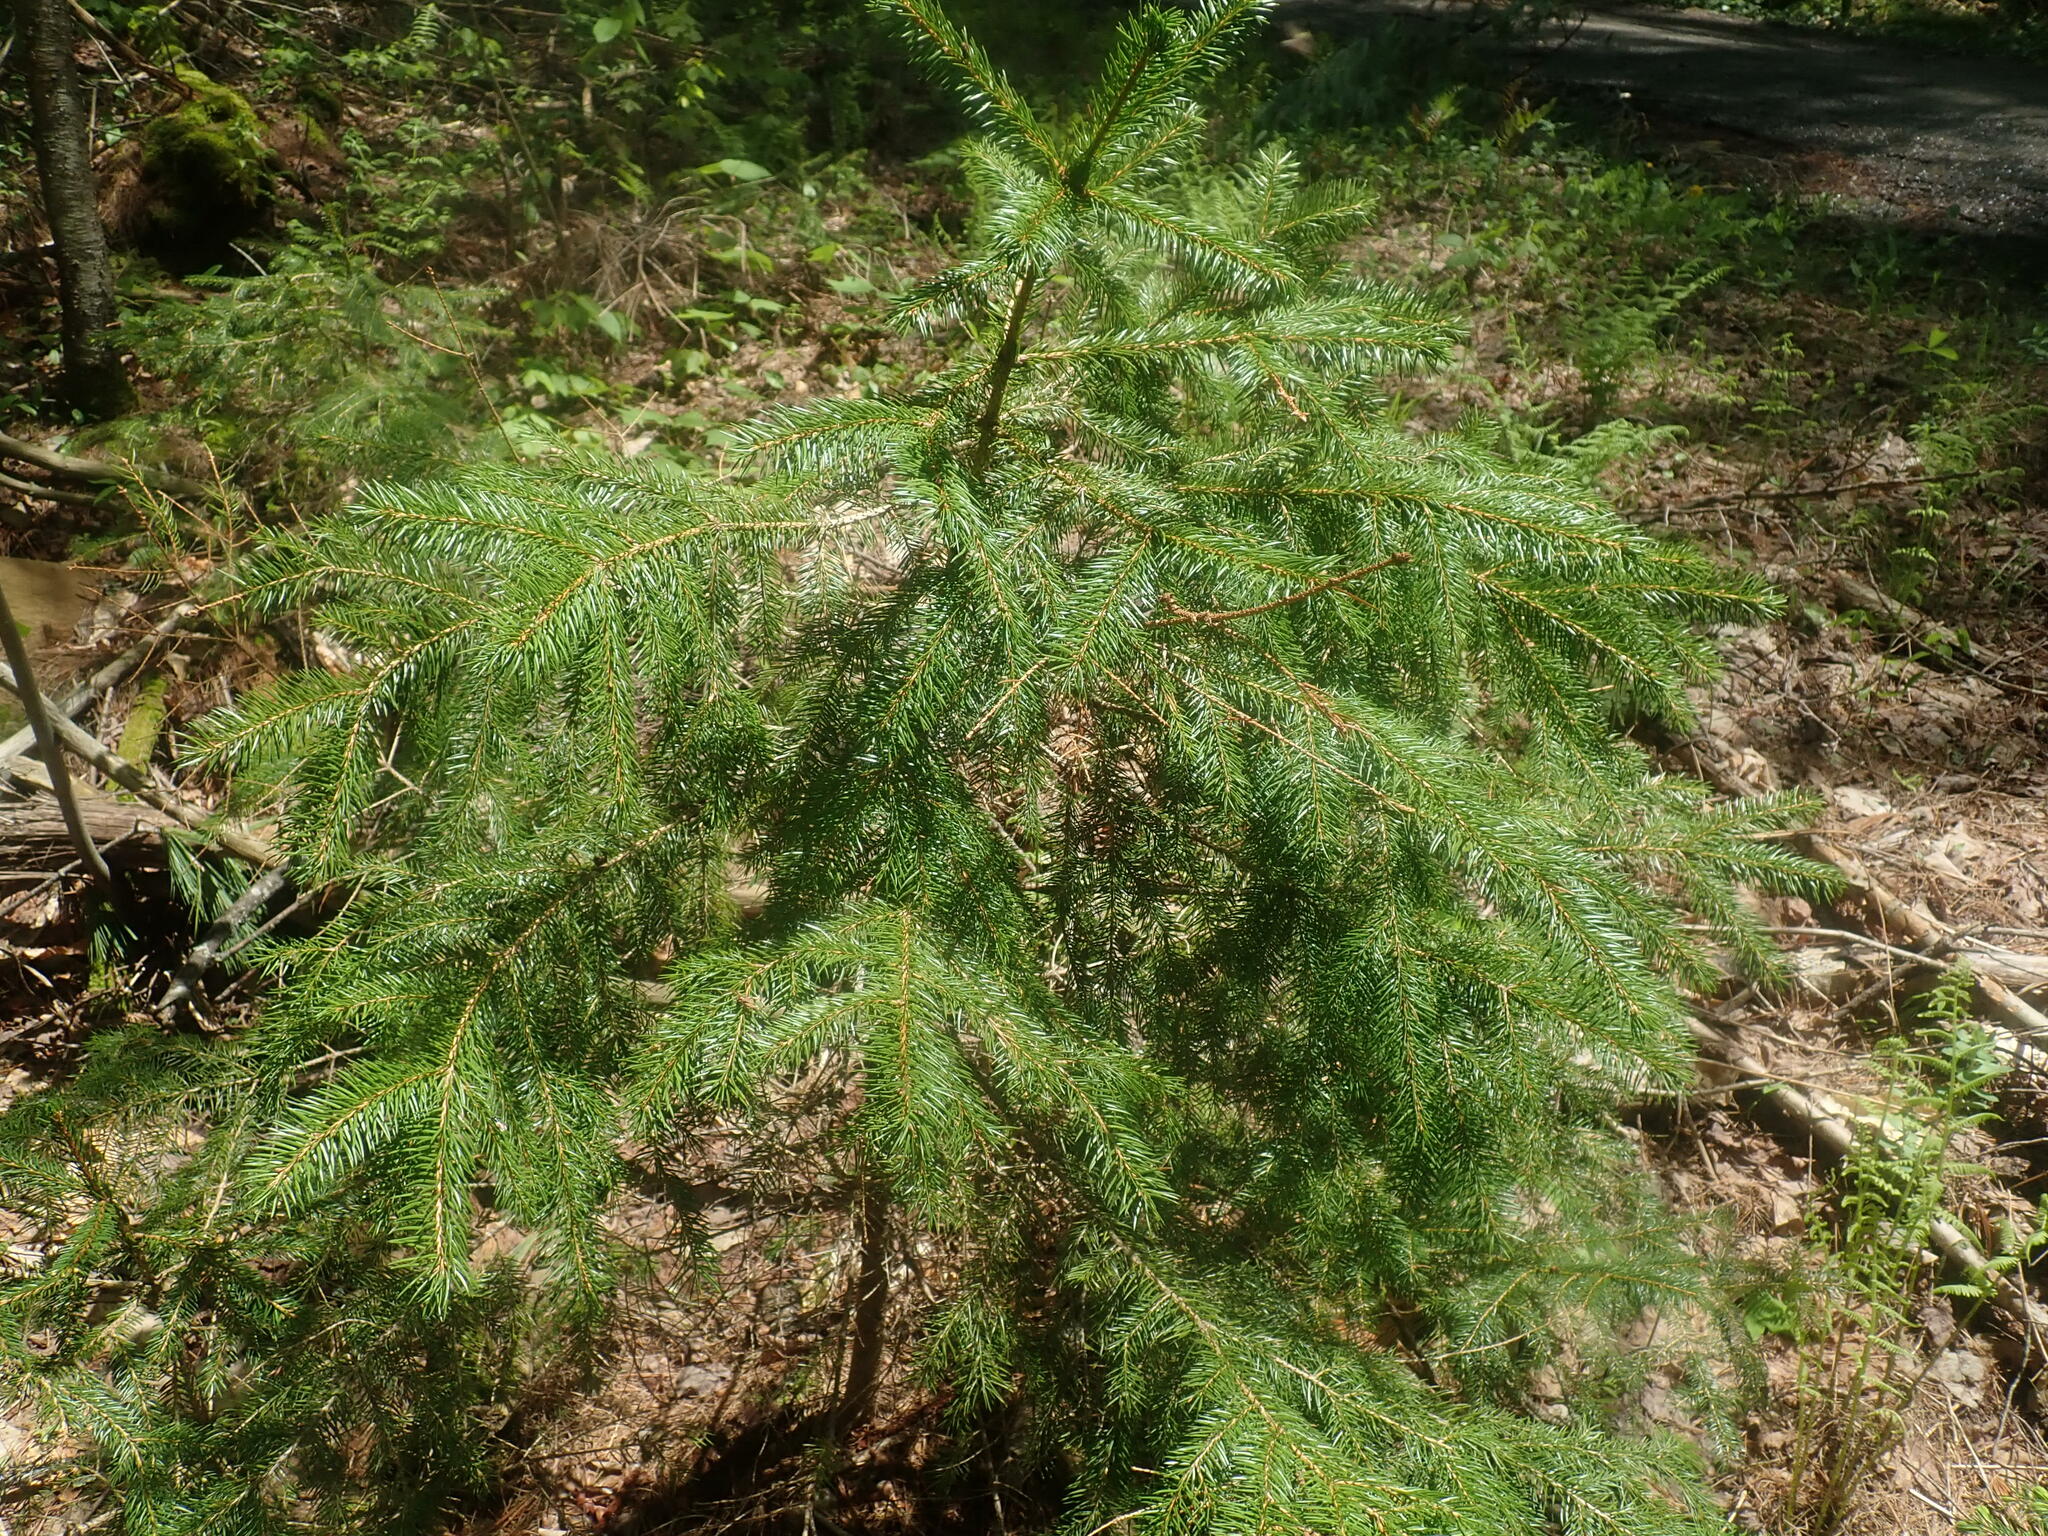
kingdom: Plantae
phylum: Tracheophyta
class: Pinopsida
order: Pinales
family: Pinaceae
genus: Picea
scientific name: Picea
